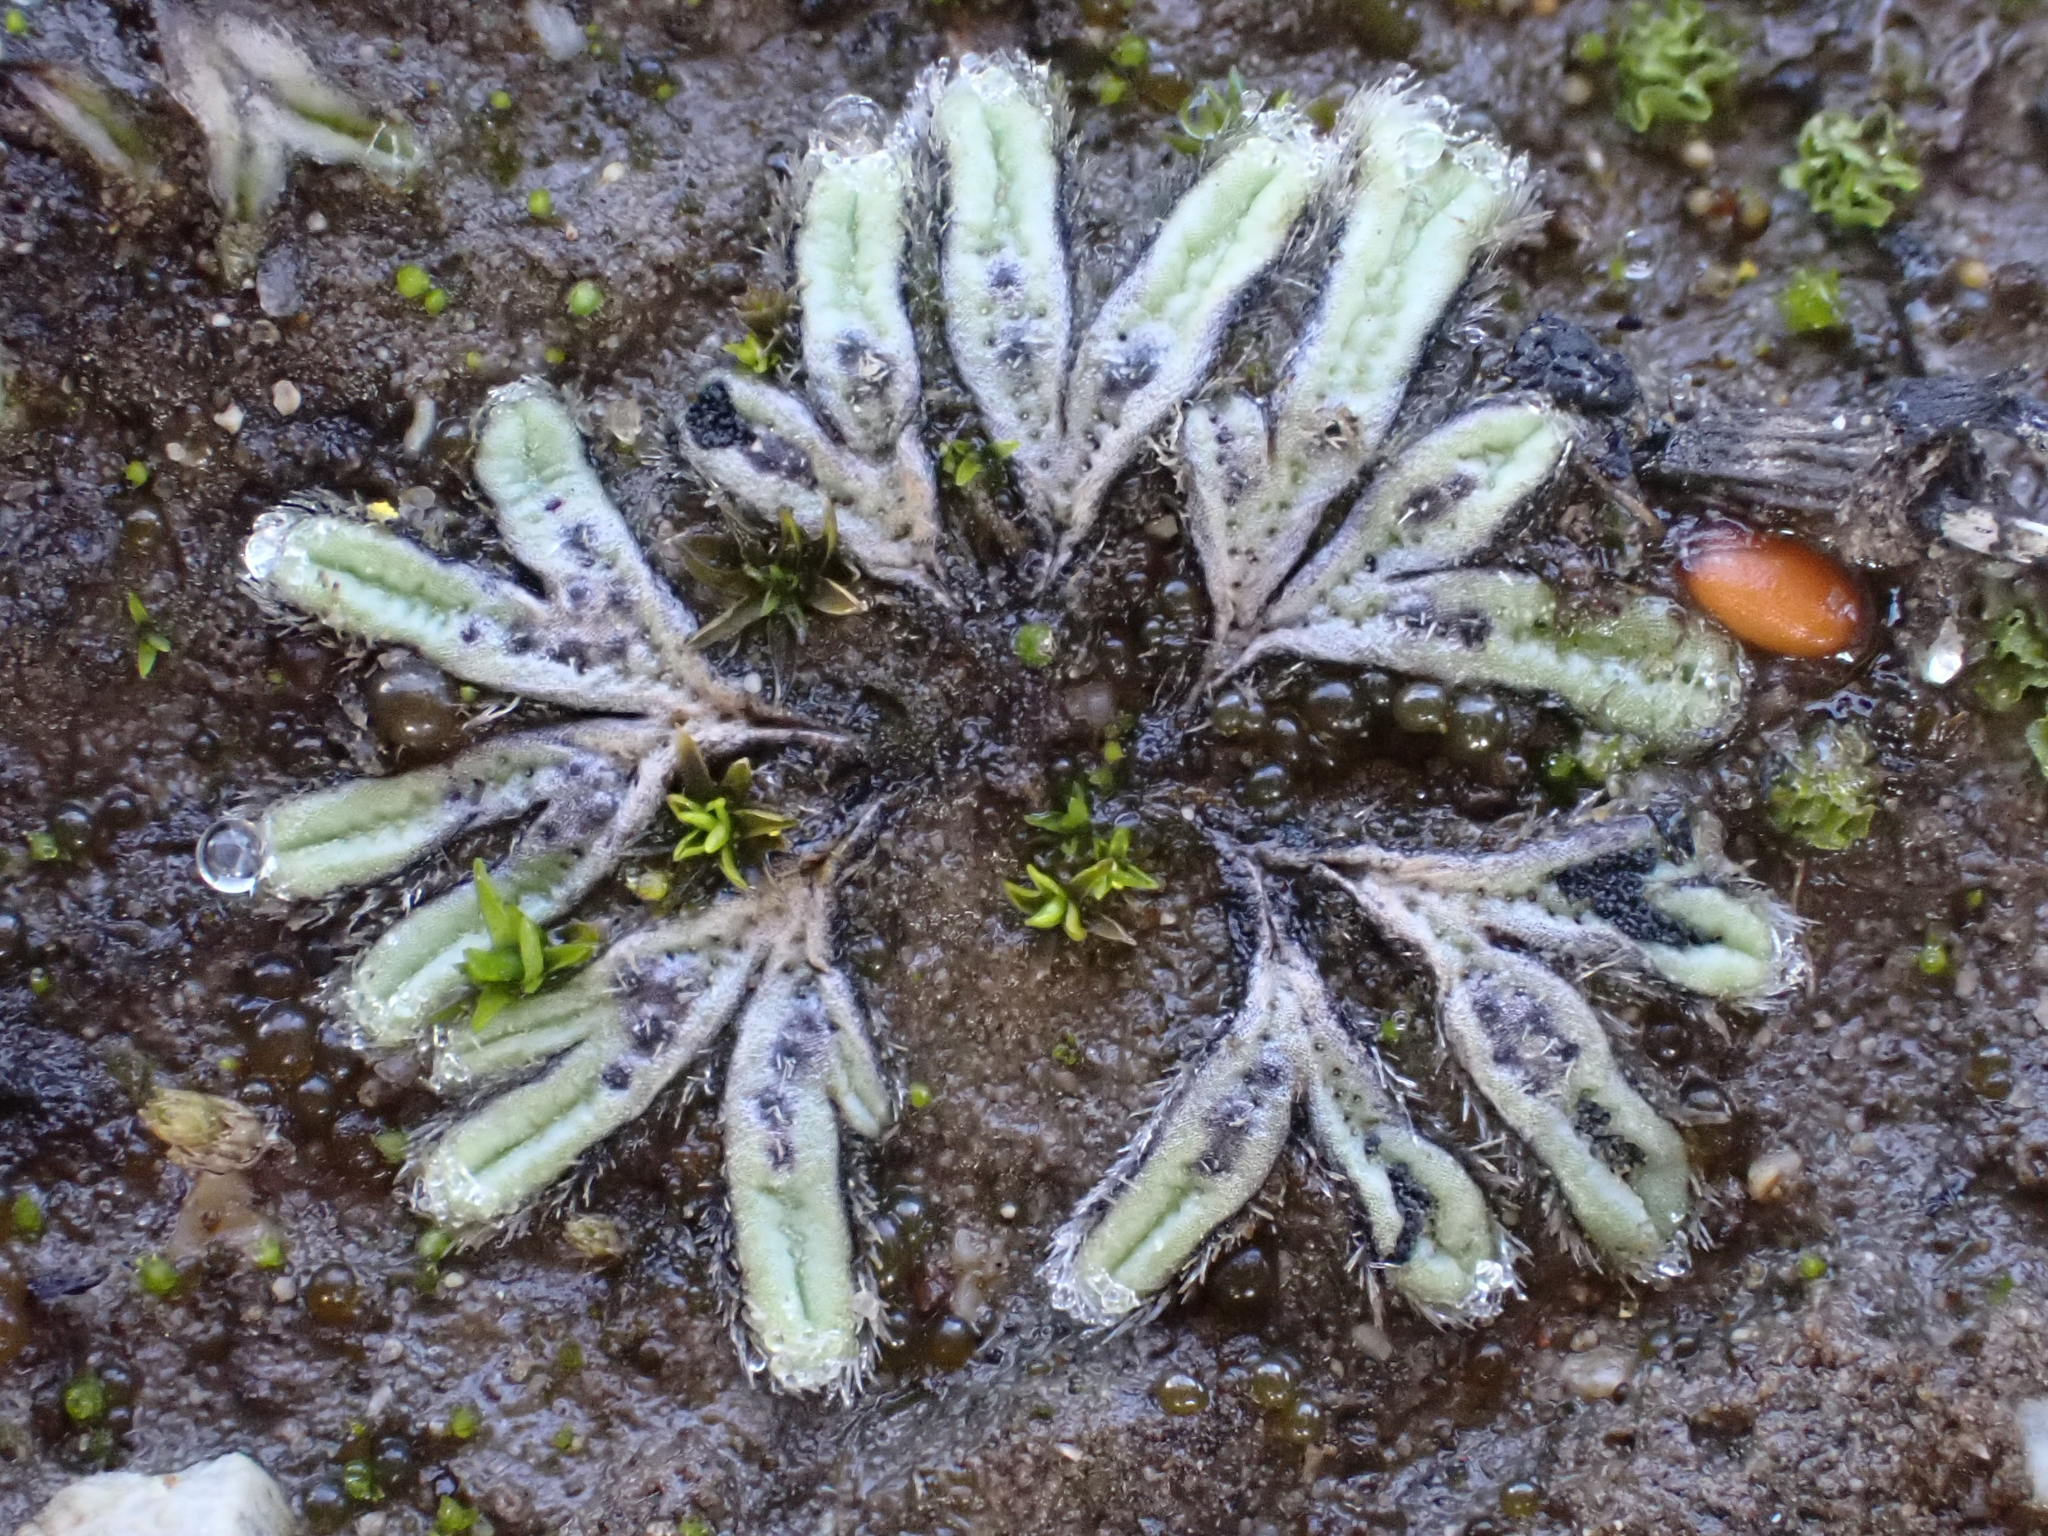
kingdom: Plantae
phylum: Marchantiophyta
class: Marchantiopsida
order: Marchantiales
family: Ricciaceae
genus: Riccia
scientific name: Riccia trichocarpa
